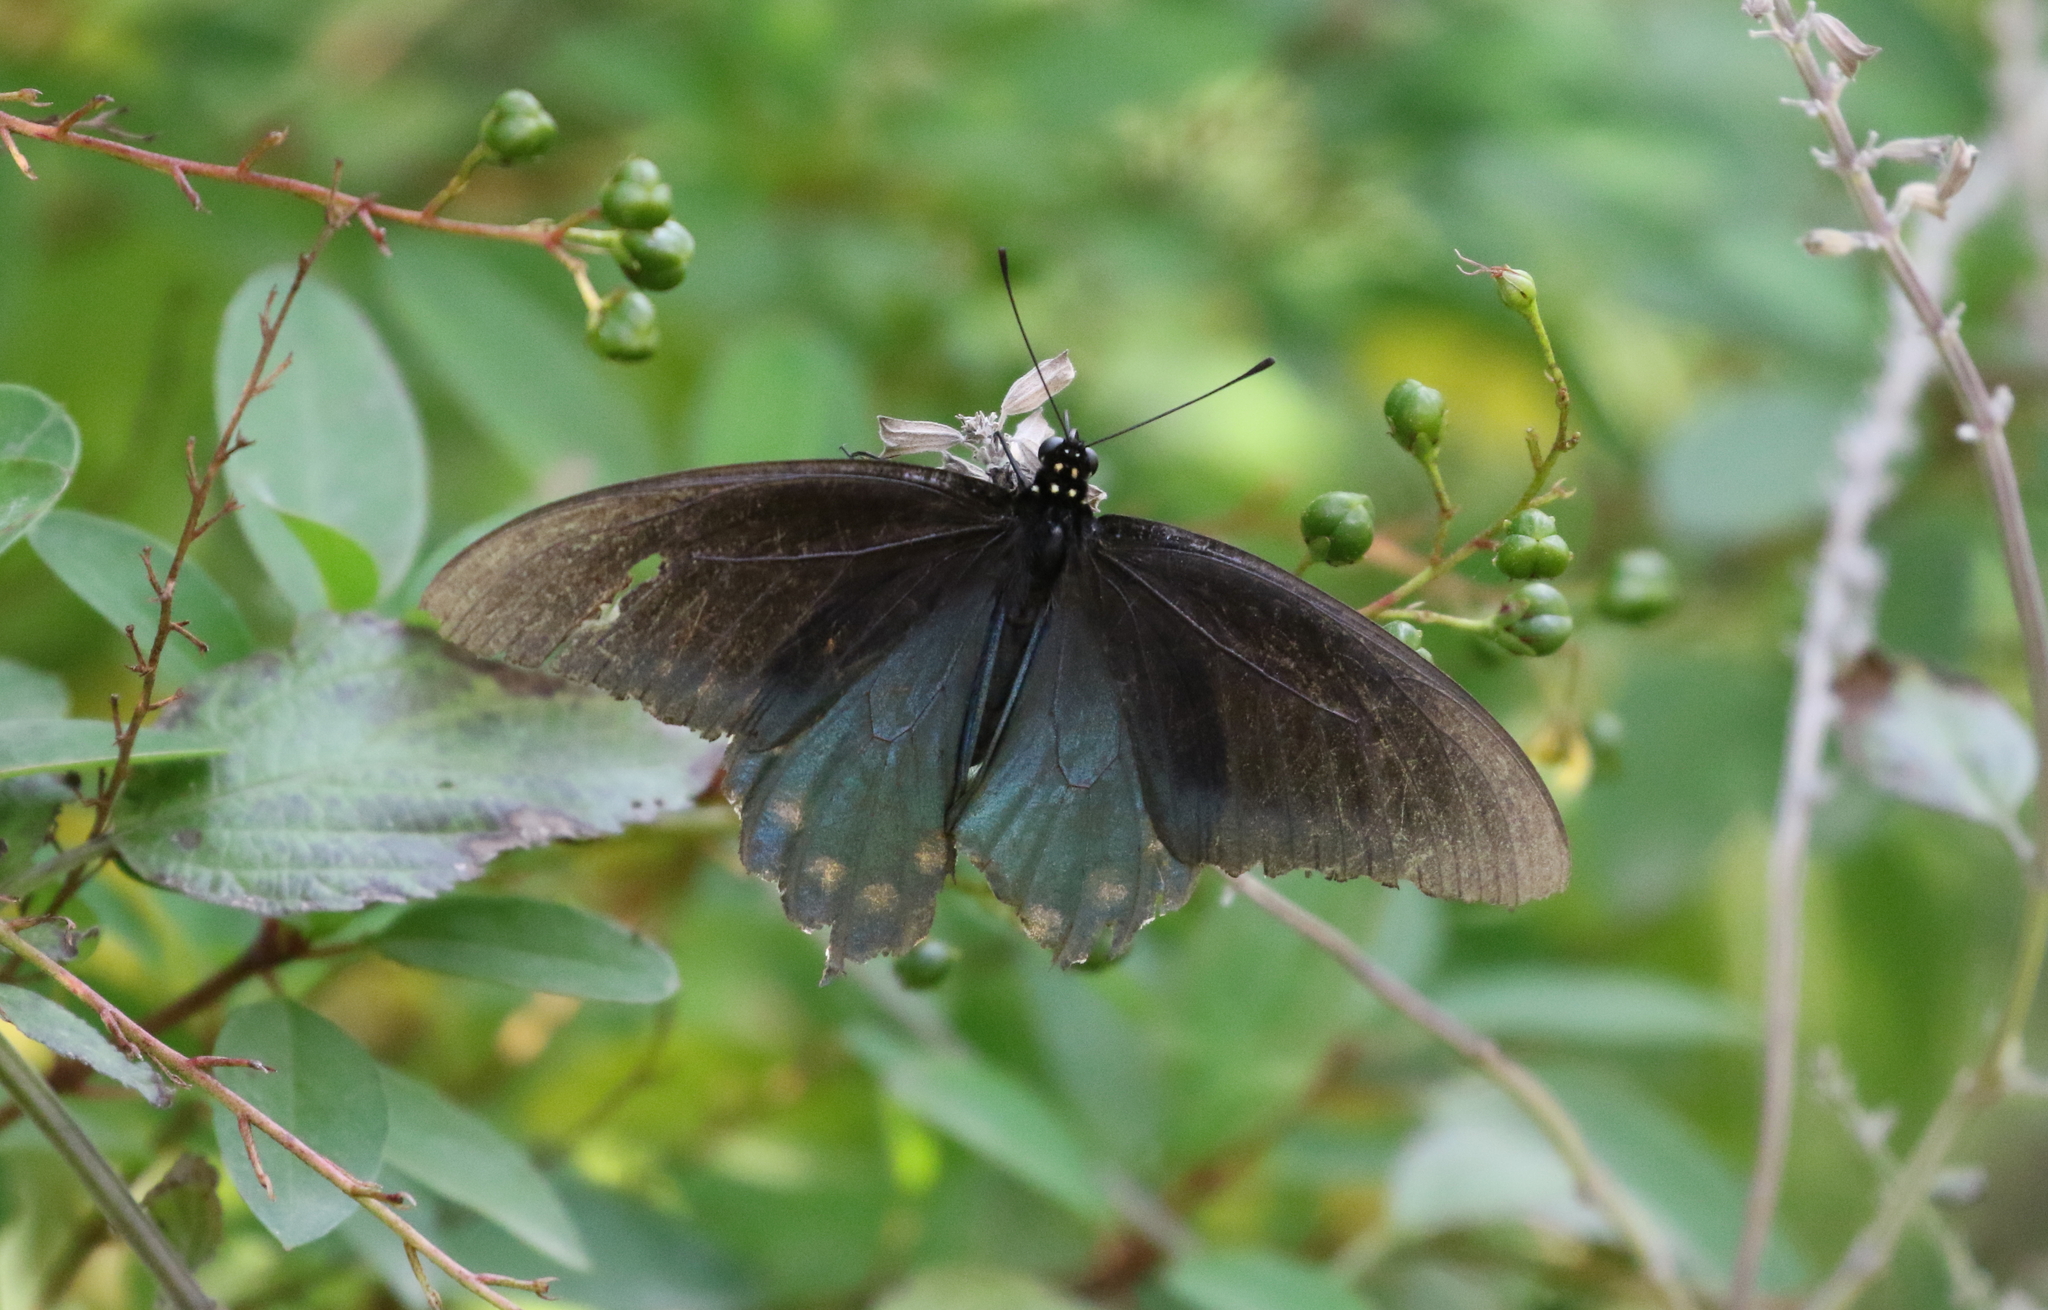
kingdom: Animalia
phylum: Arthropoda
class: Insecta
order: Lepidoptera
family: Papilionidae
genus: Battus
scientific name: Battus philenor
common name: Pipevine swallowtail
